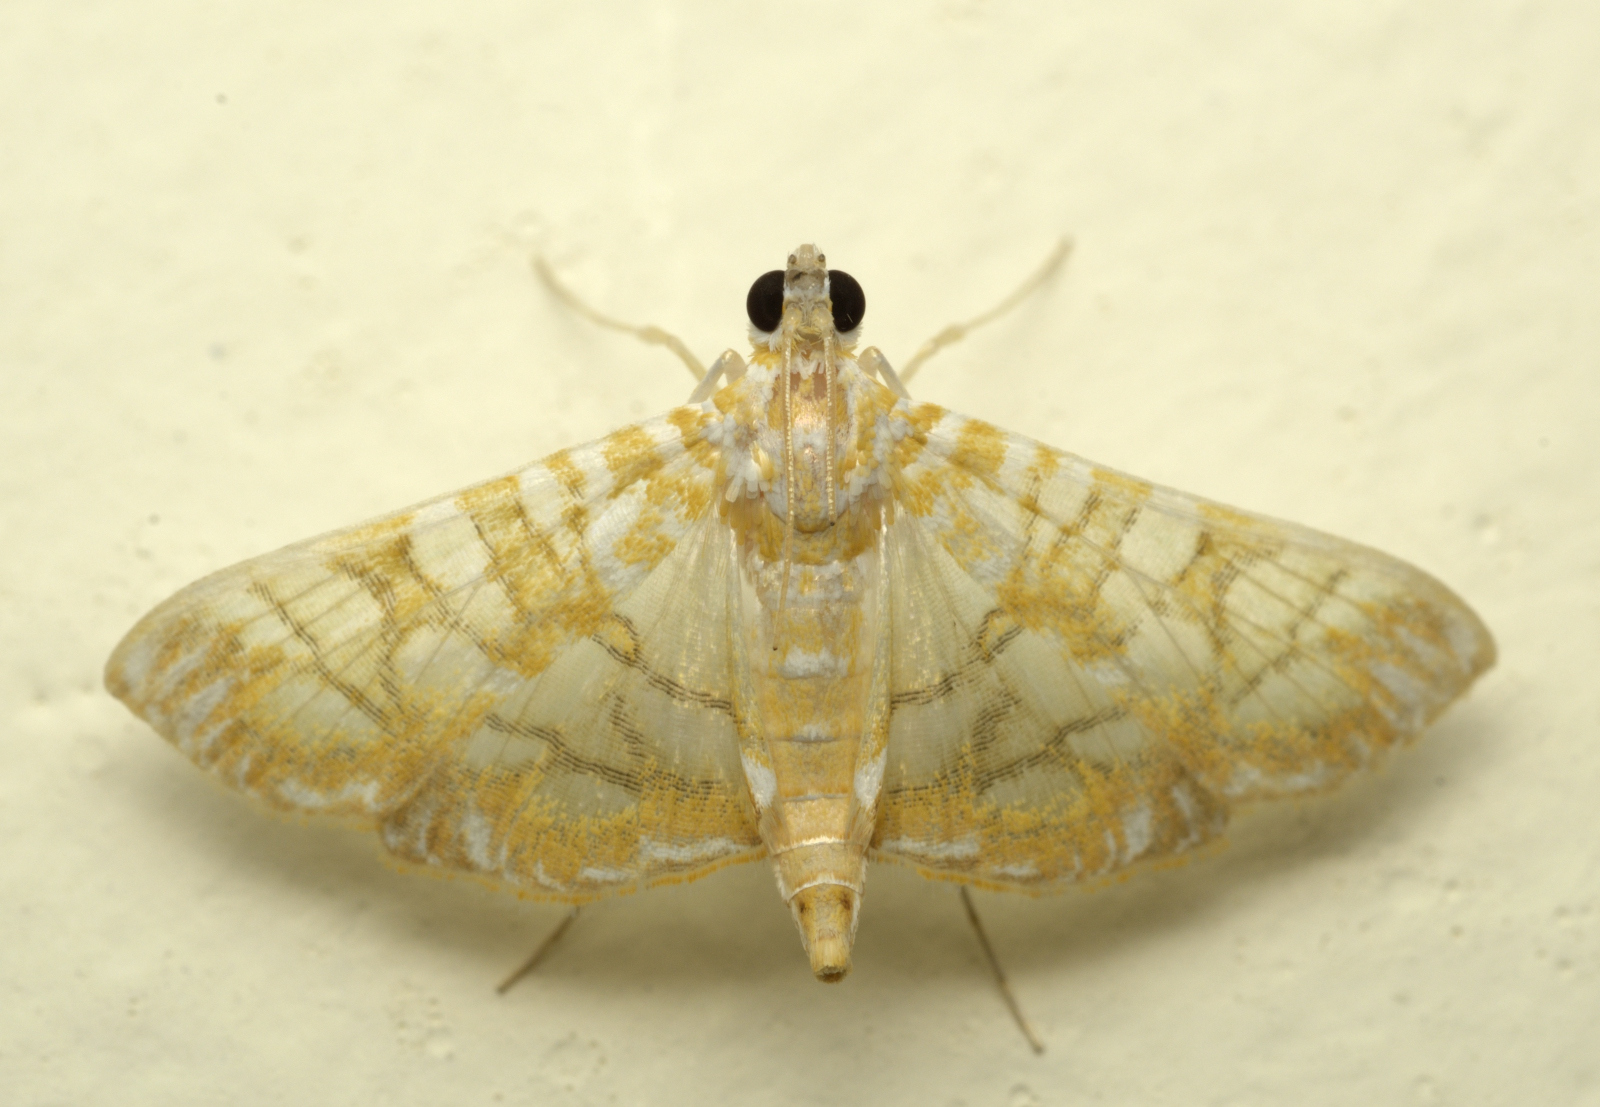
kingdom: Animalia
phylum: Arthropoda
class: Insecta
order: Lepidoptera
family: Crambidae
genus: Synclera
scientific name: Synclera traducalis
